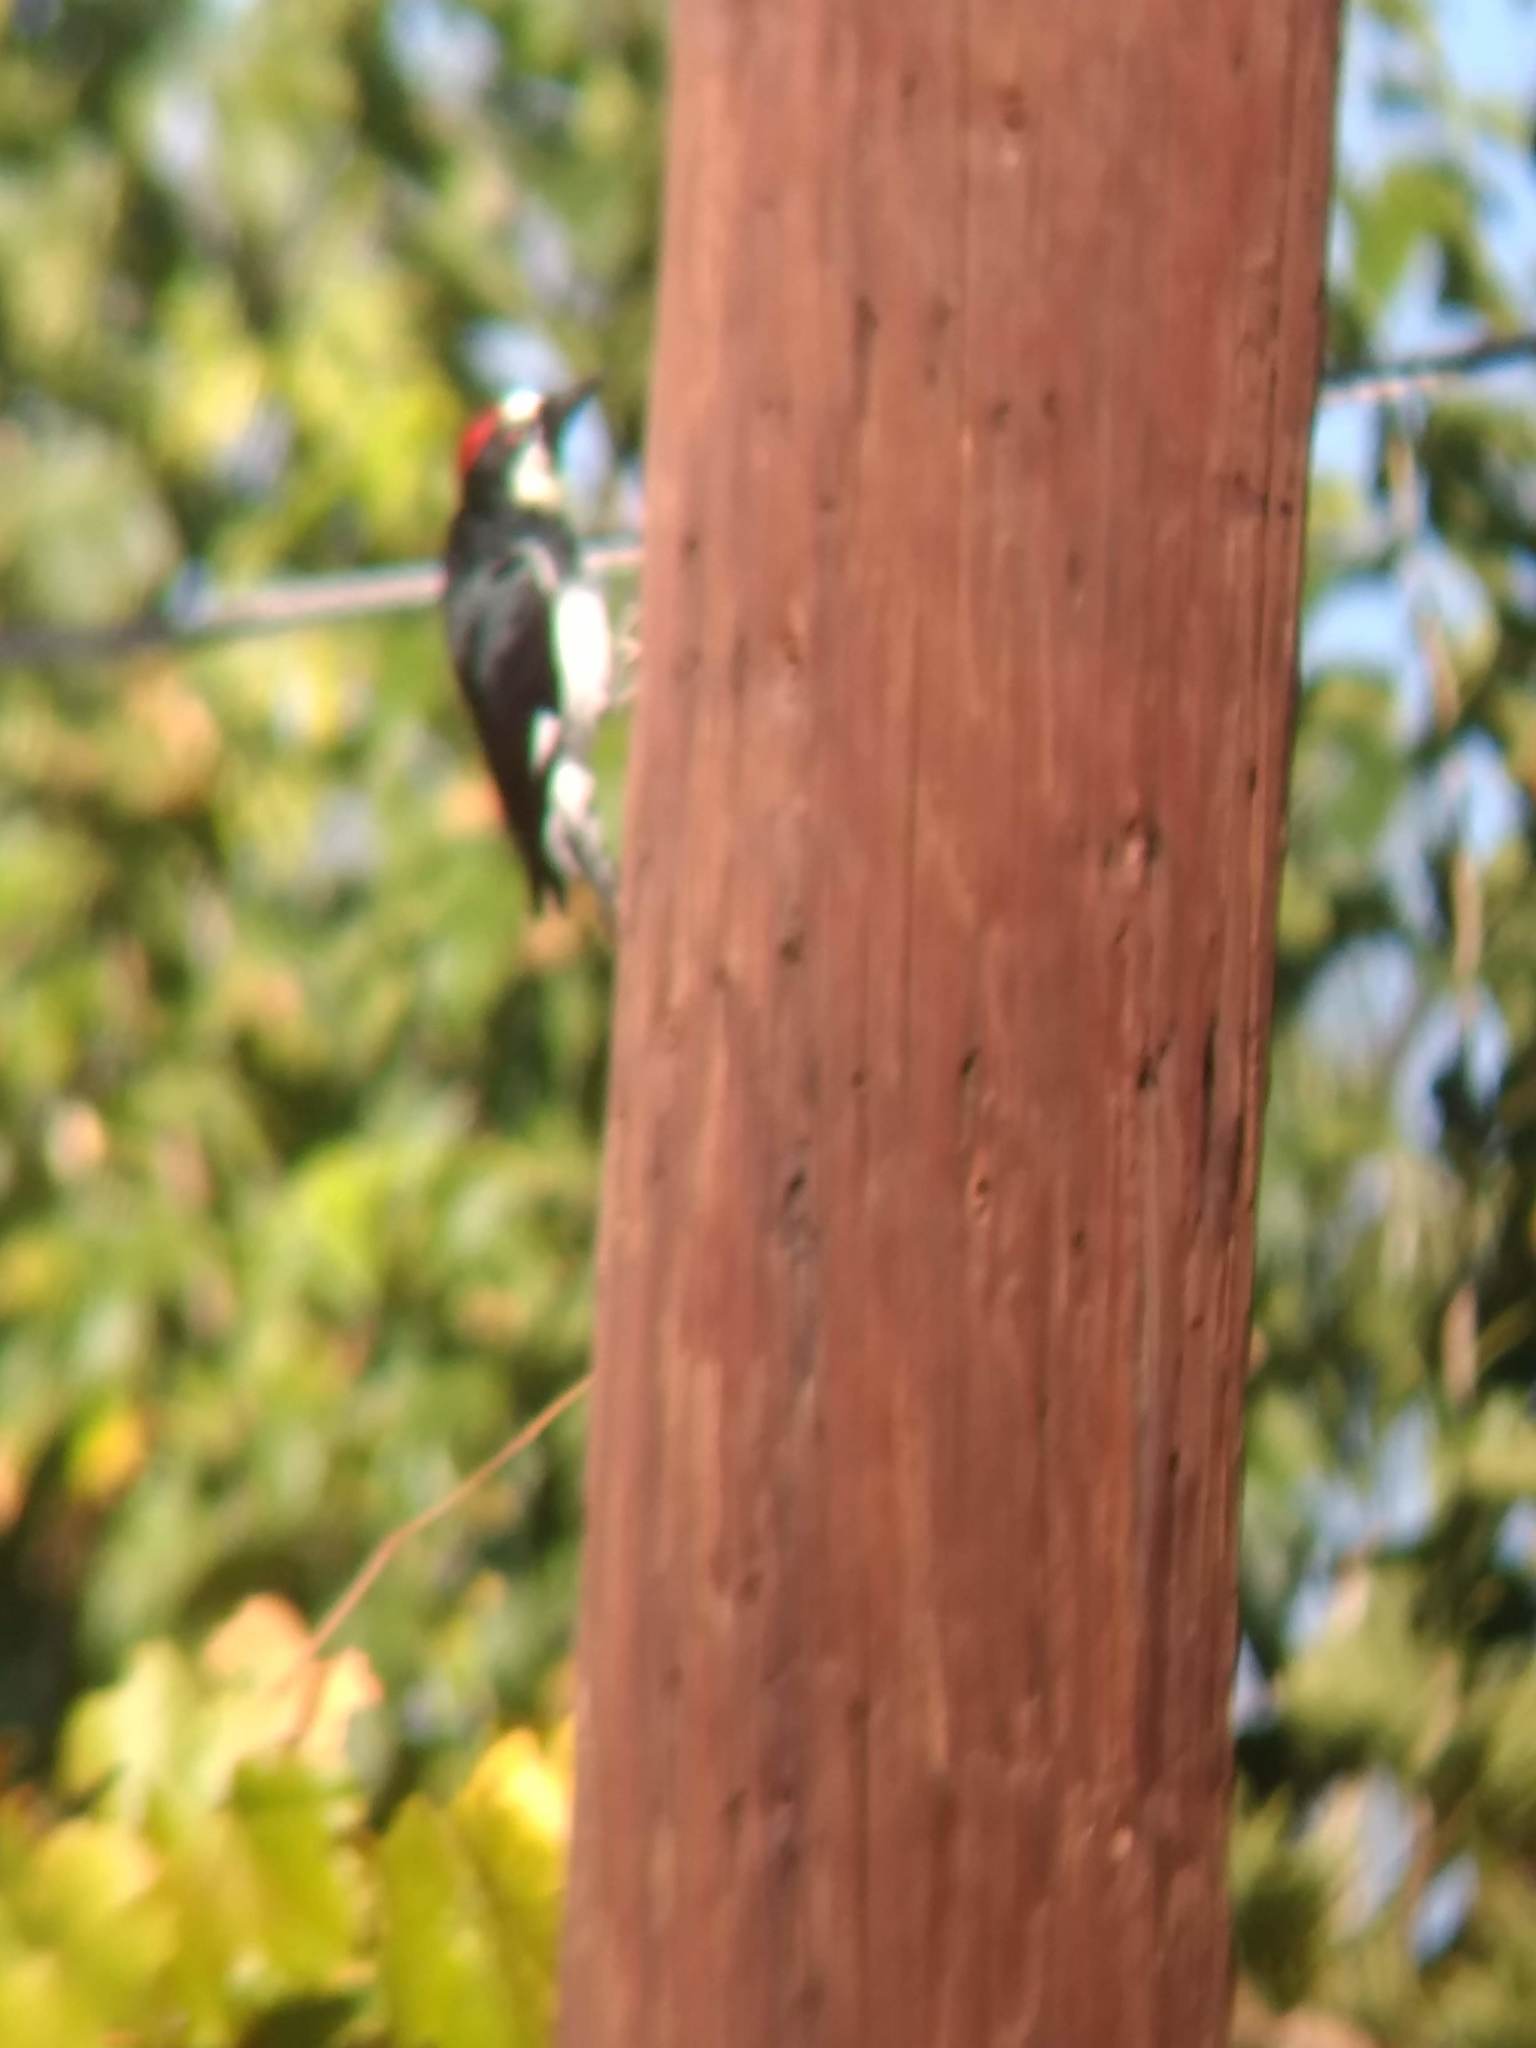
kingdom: Animalia
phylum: Chordata
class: Aves
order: Piciformes
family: Picidae
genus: Melanerpes
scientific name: Melanerpes formicivorus
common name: Acorn woodpecker
